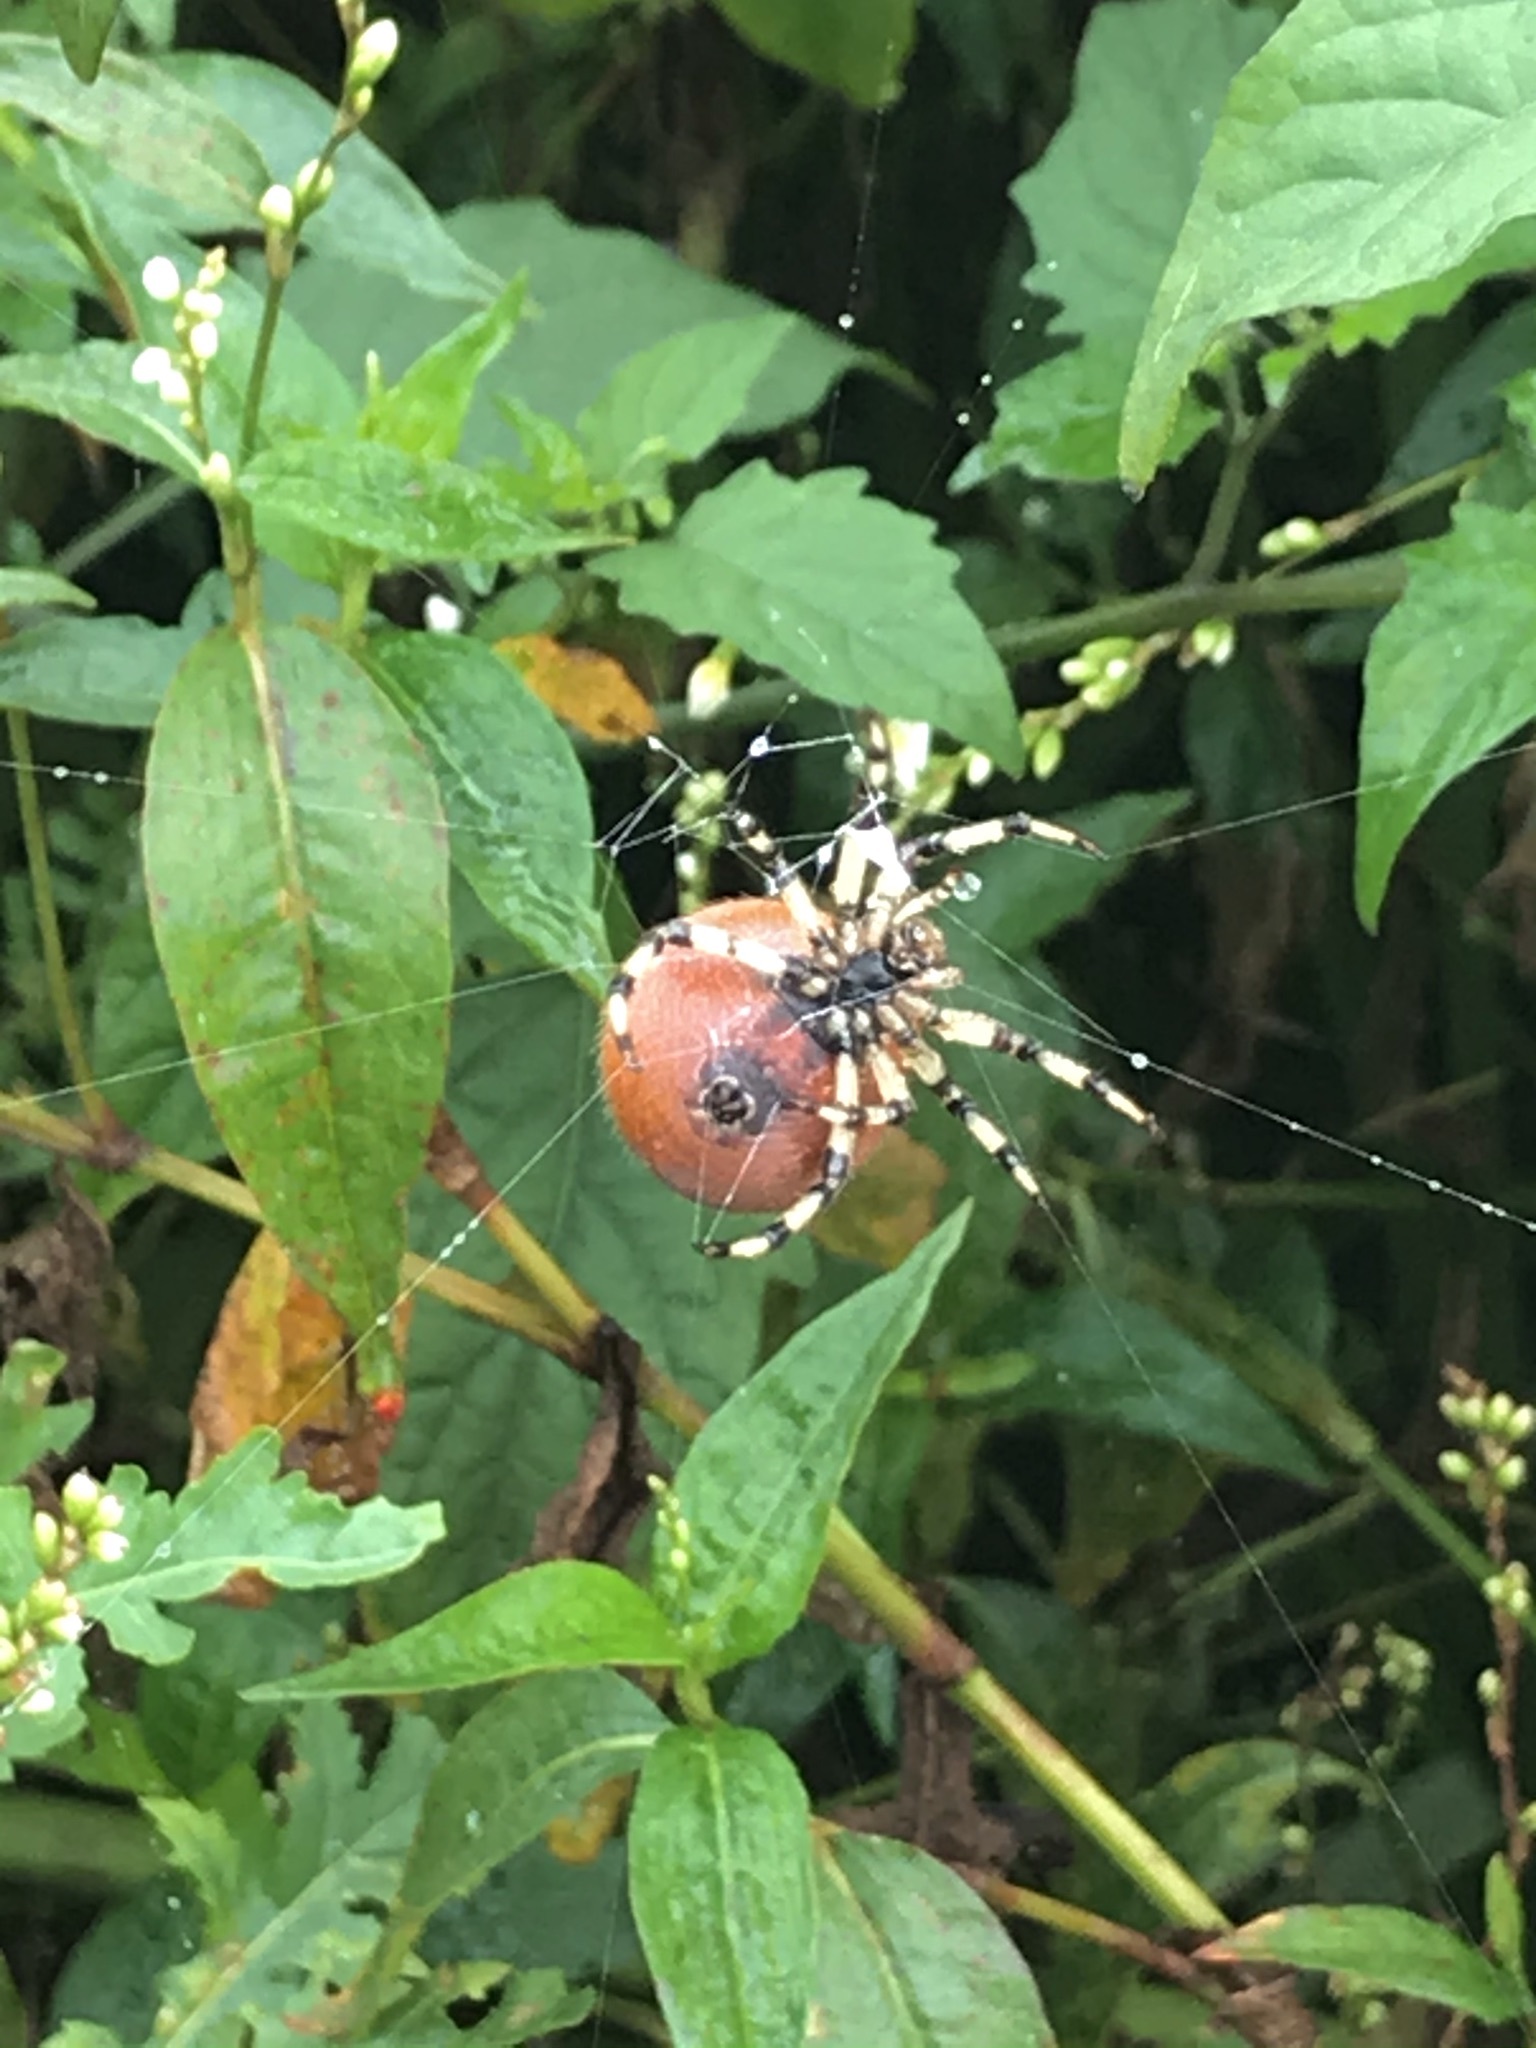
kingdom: Animalia
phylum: Arthropoda
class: Arachnida
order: Araneae
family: Araneidae
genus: Araneus
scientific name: Araneus trifolium
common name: Shamrock orbweaver
